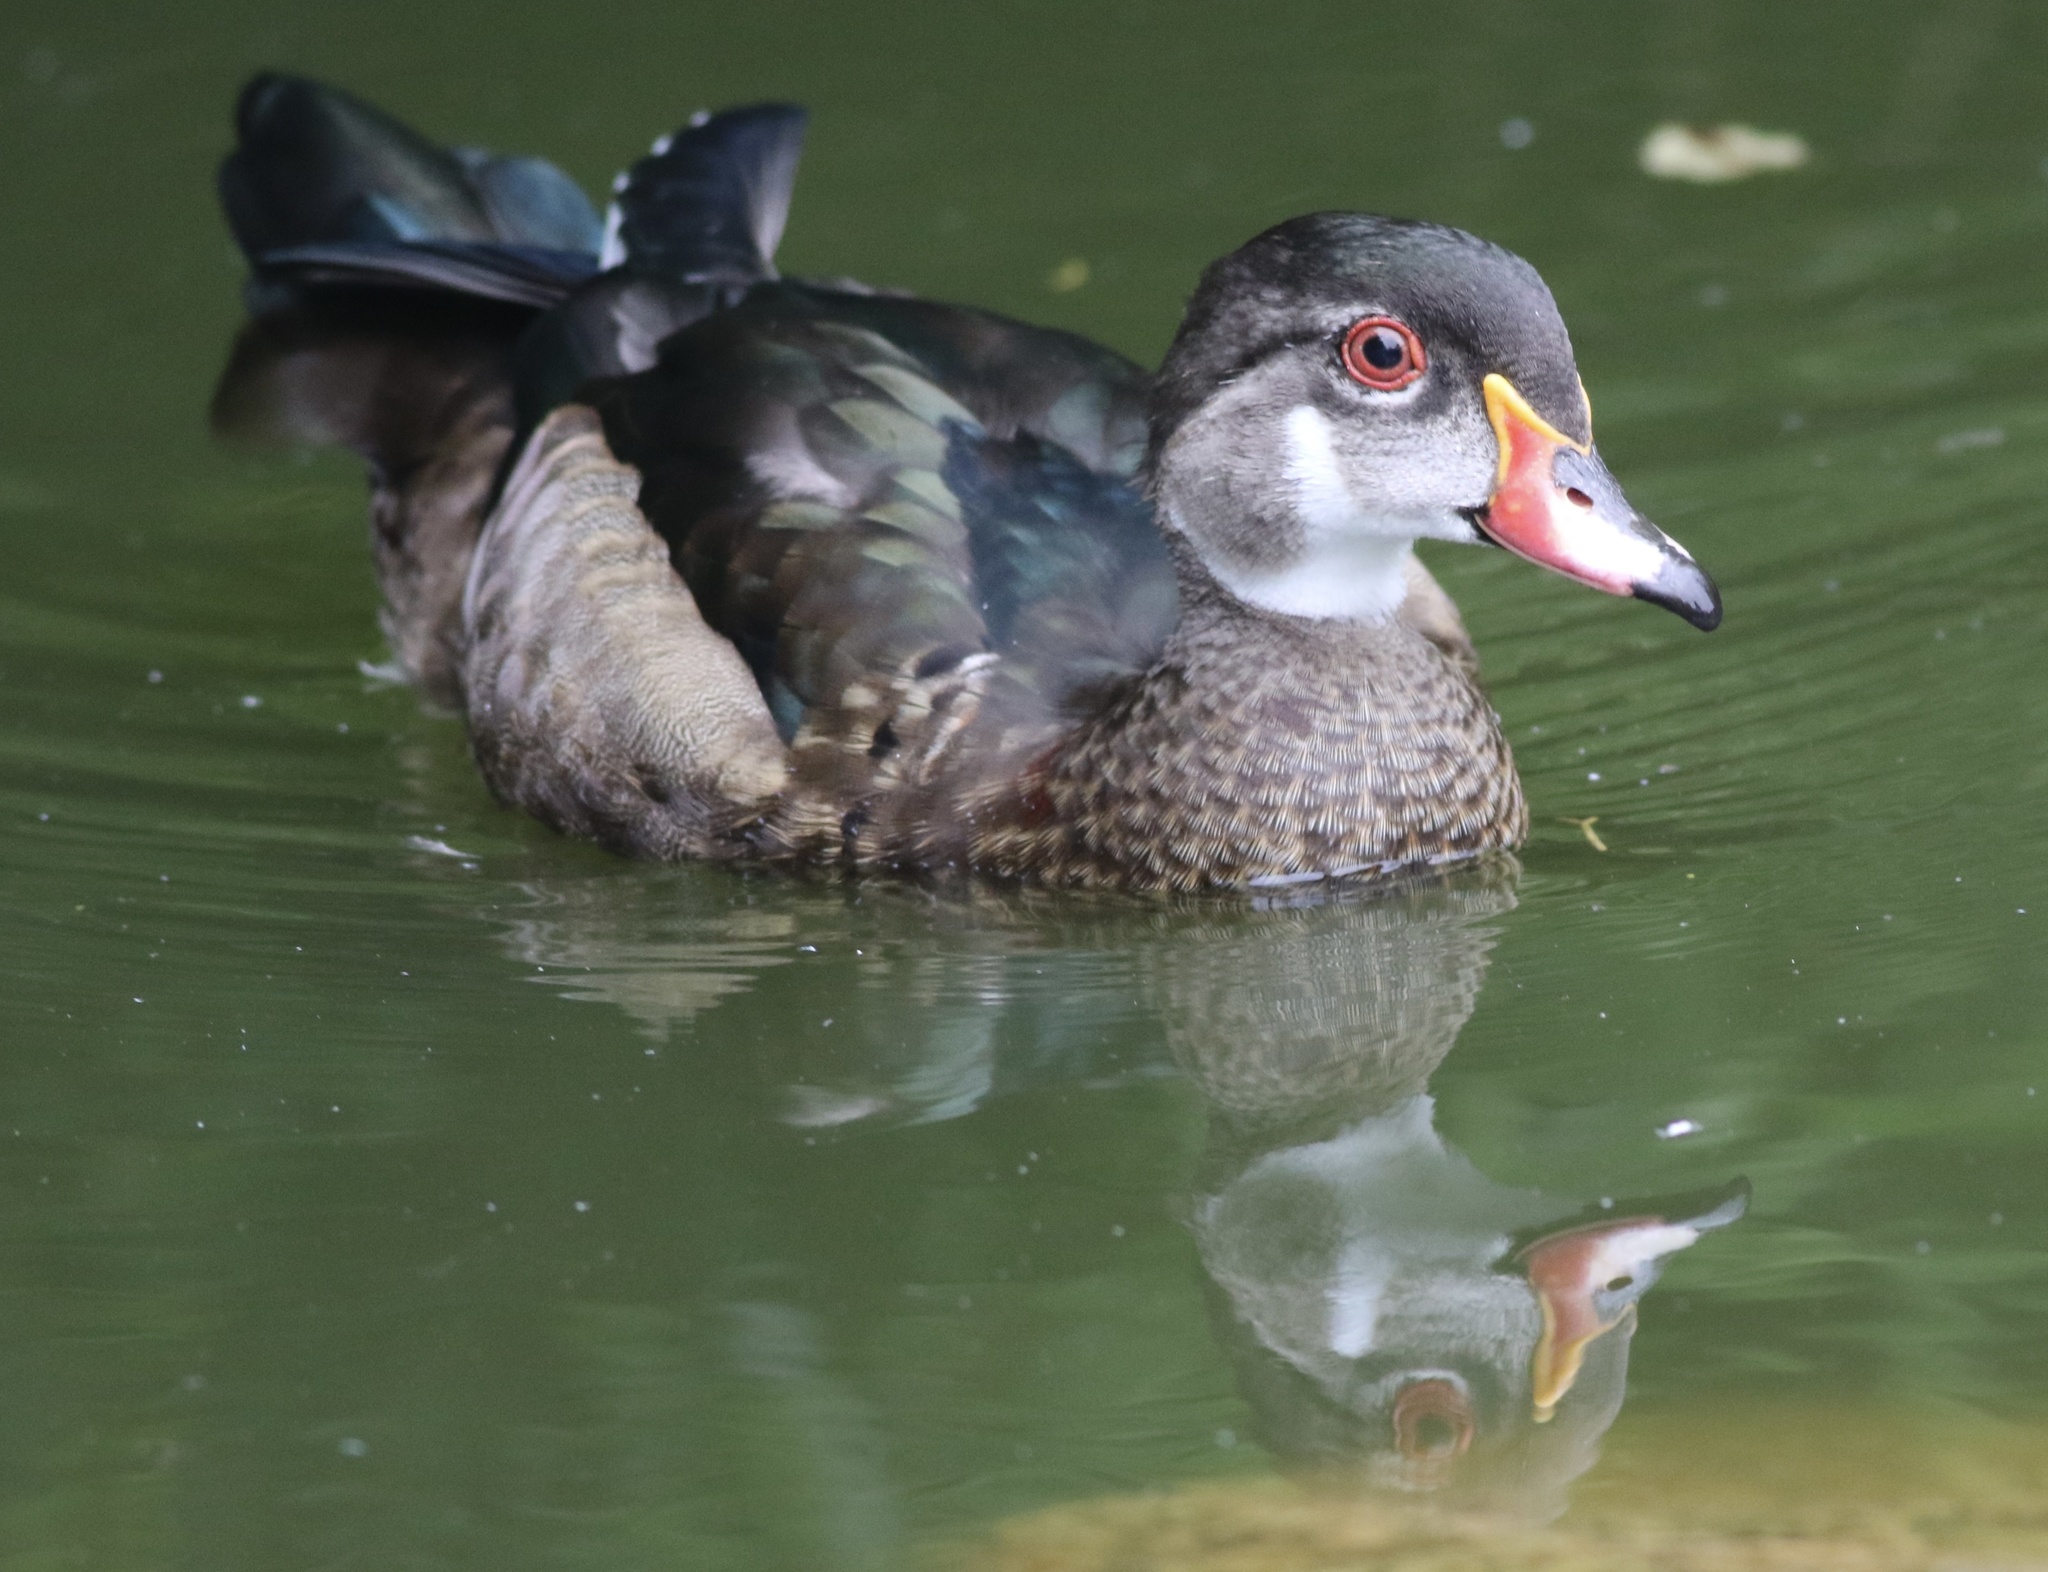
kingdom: Animalia
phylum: Chordata
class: Aves
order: Anseriformes
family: Anatidae
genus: Aix
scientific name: Aix sponsa
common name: Wood duck
